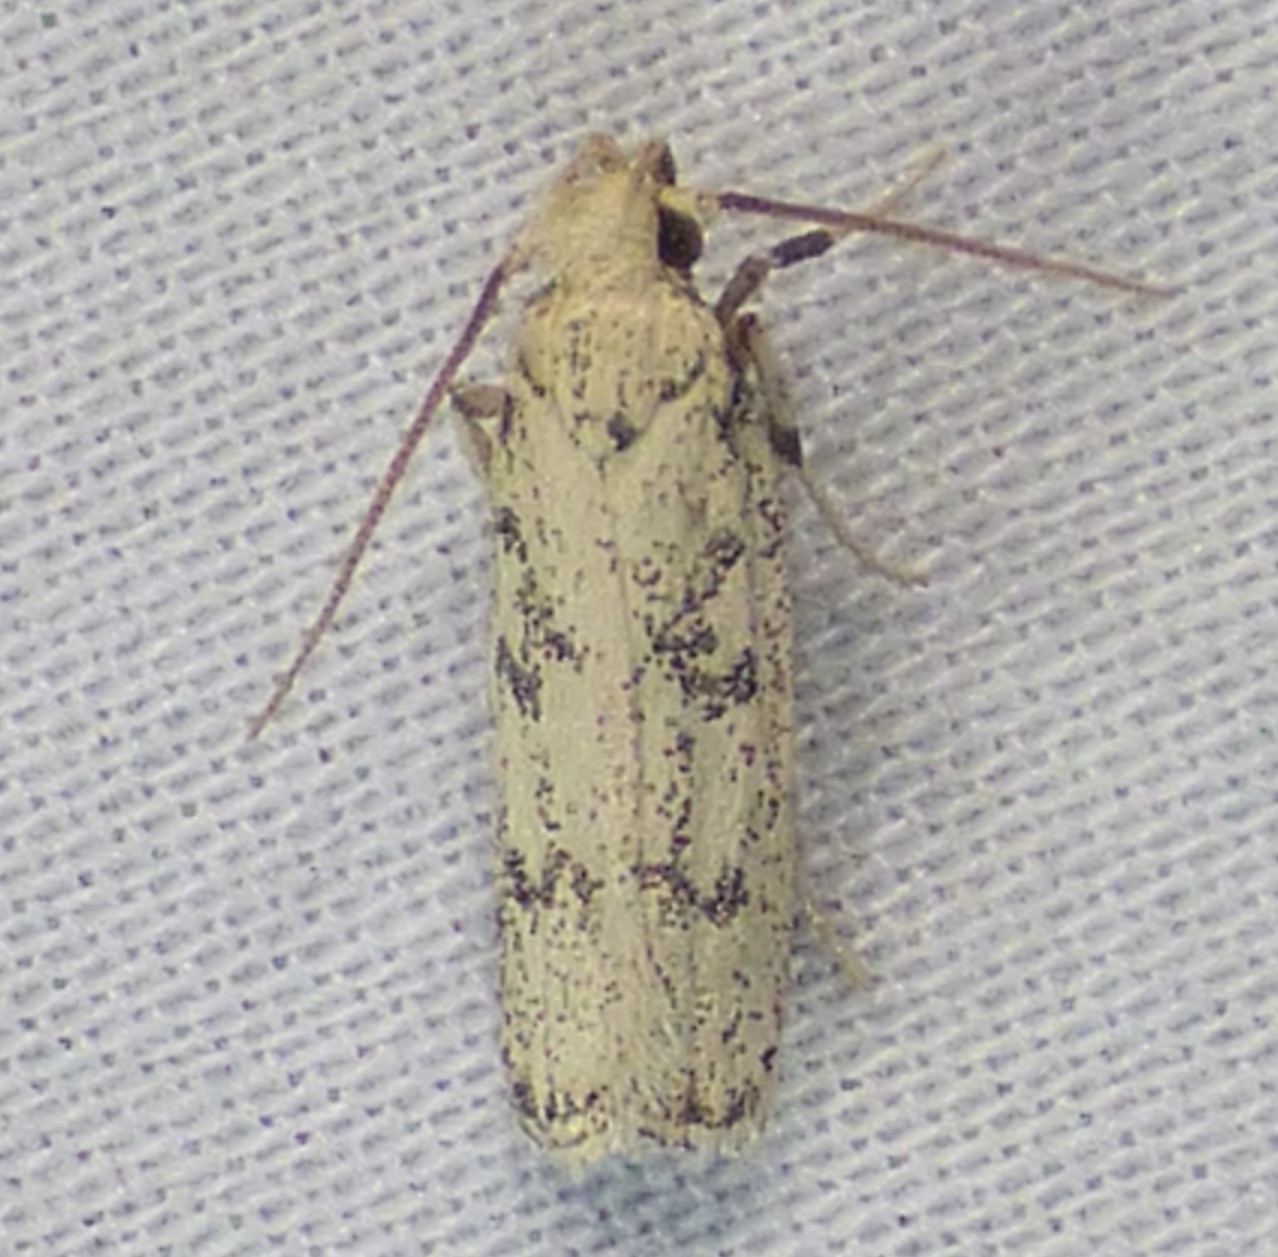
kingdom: Animalia
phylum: Arthropoda
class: Insecta
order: Lepidoptera
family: Autostichidae
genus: Glyphidocera
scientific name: Glyphidocera lactiflosella
